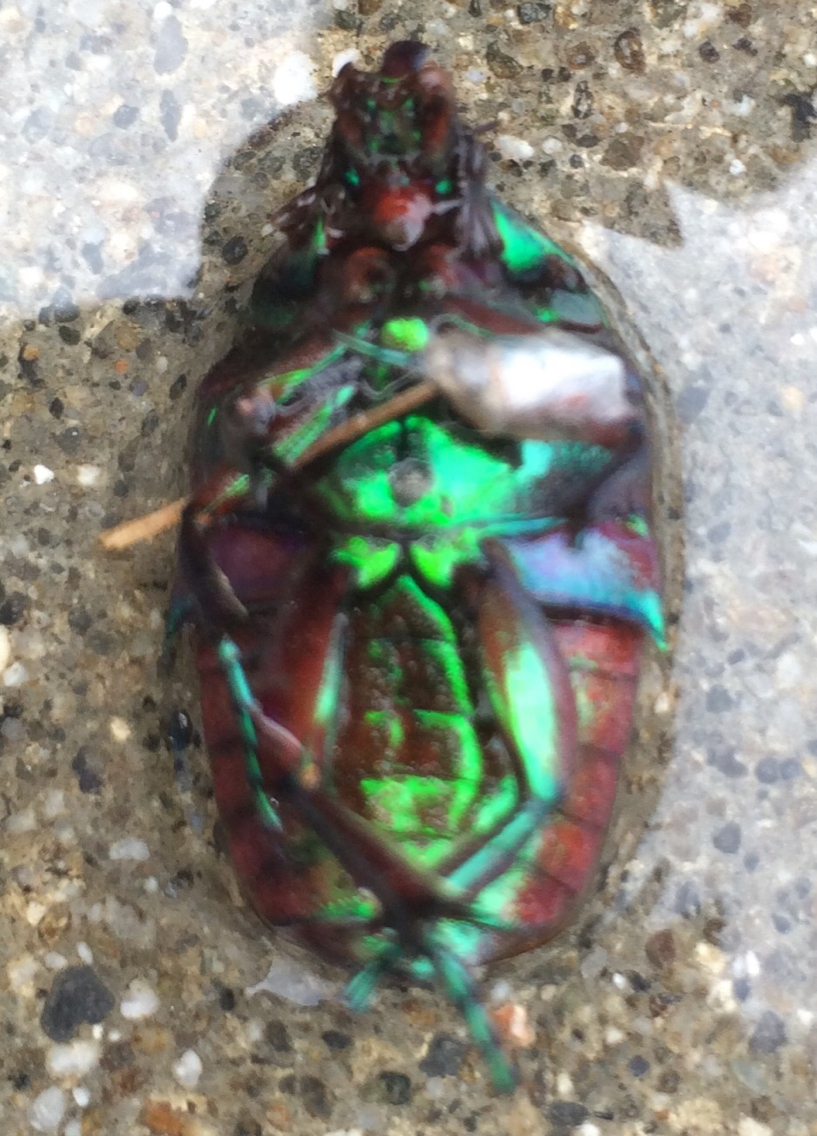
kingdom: Animalia
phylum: Arthropoda
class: Insecta
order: Coleoptera
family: Scarabaeidae
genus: Cotinis
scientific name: Cotinis mutabilis
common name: Figeater beetle
